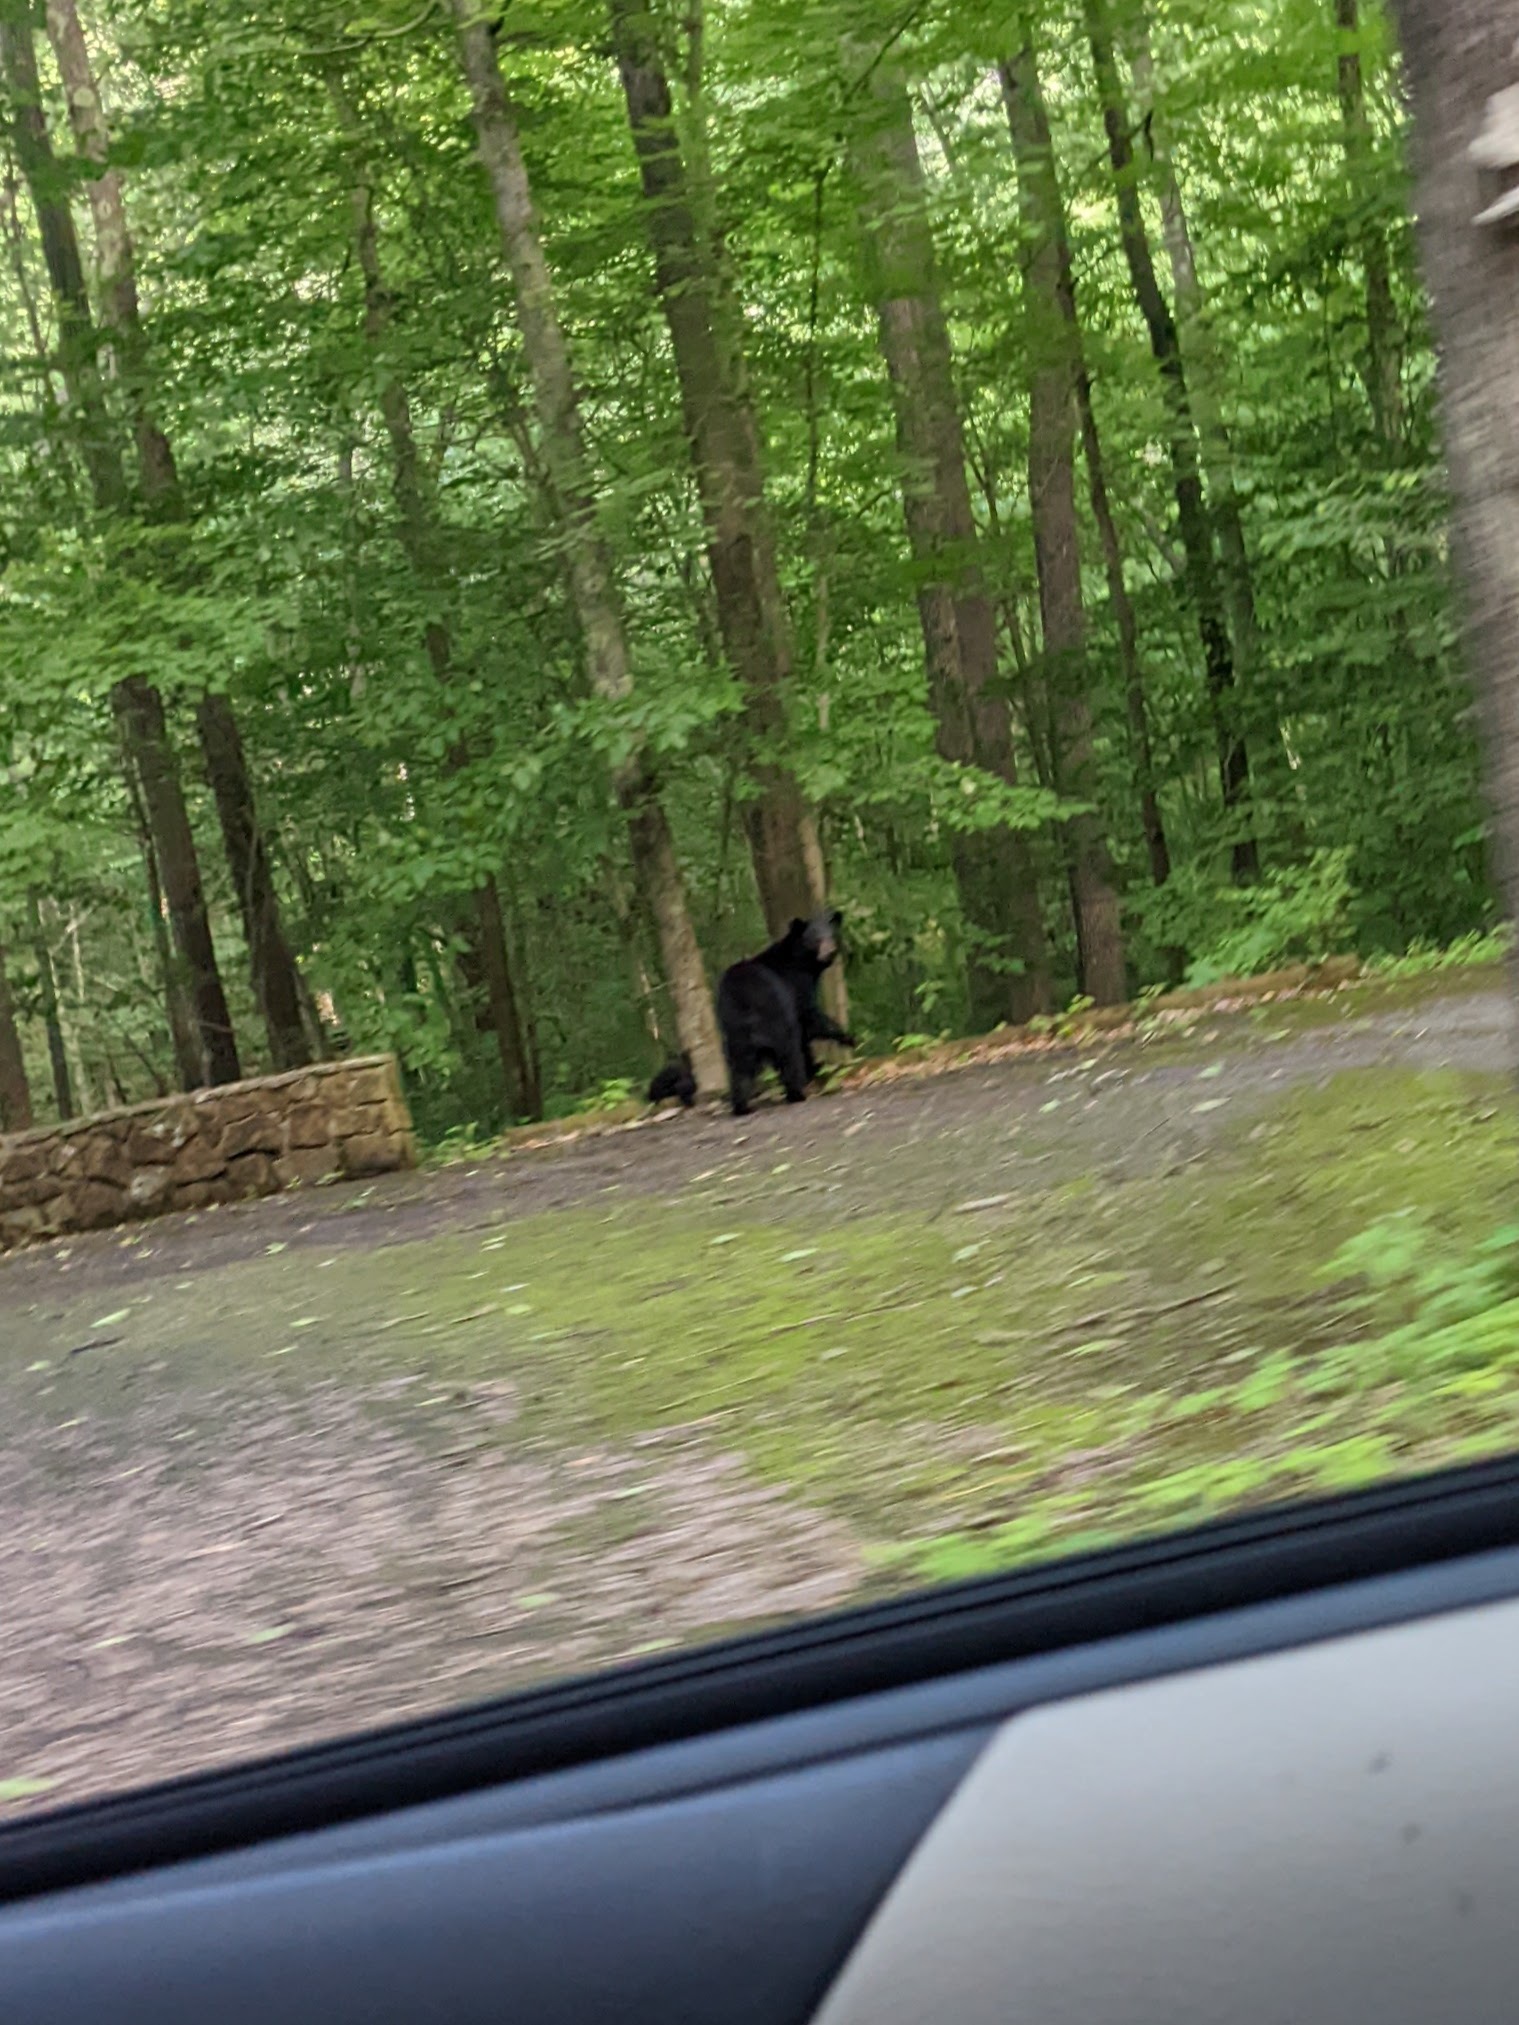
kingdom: Animalia
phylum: Chordata
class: Mammalia
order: Carnivora
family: Ursidae
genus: Ursus
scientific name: Ursus americanus
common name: American black bear
